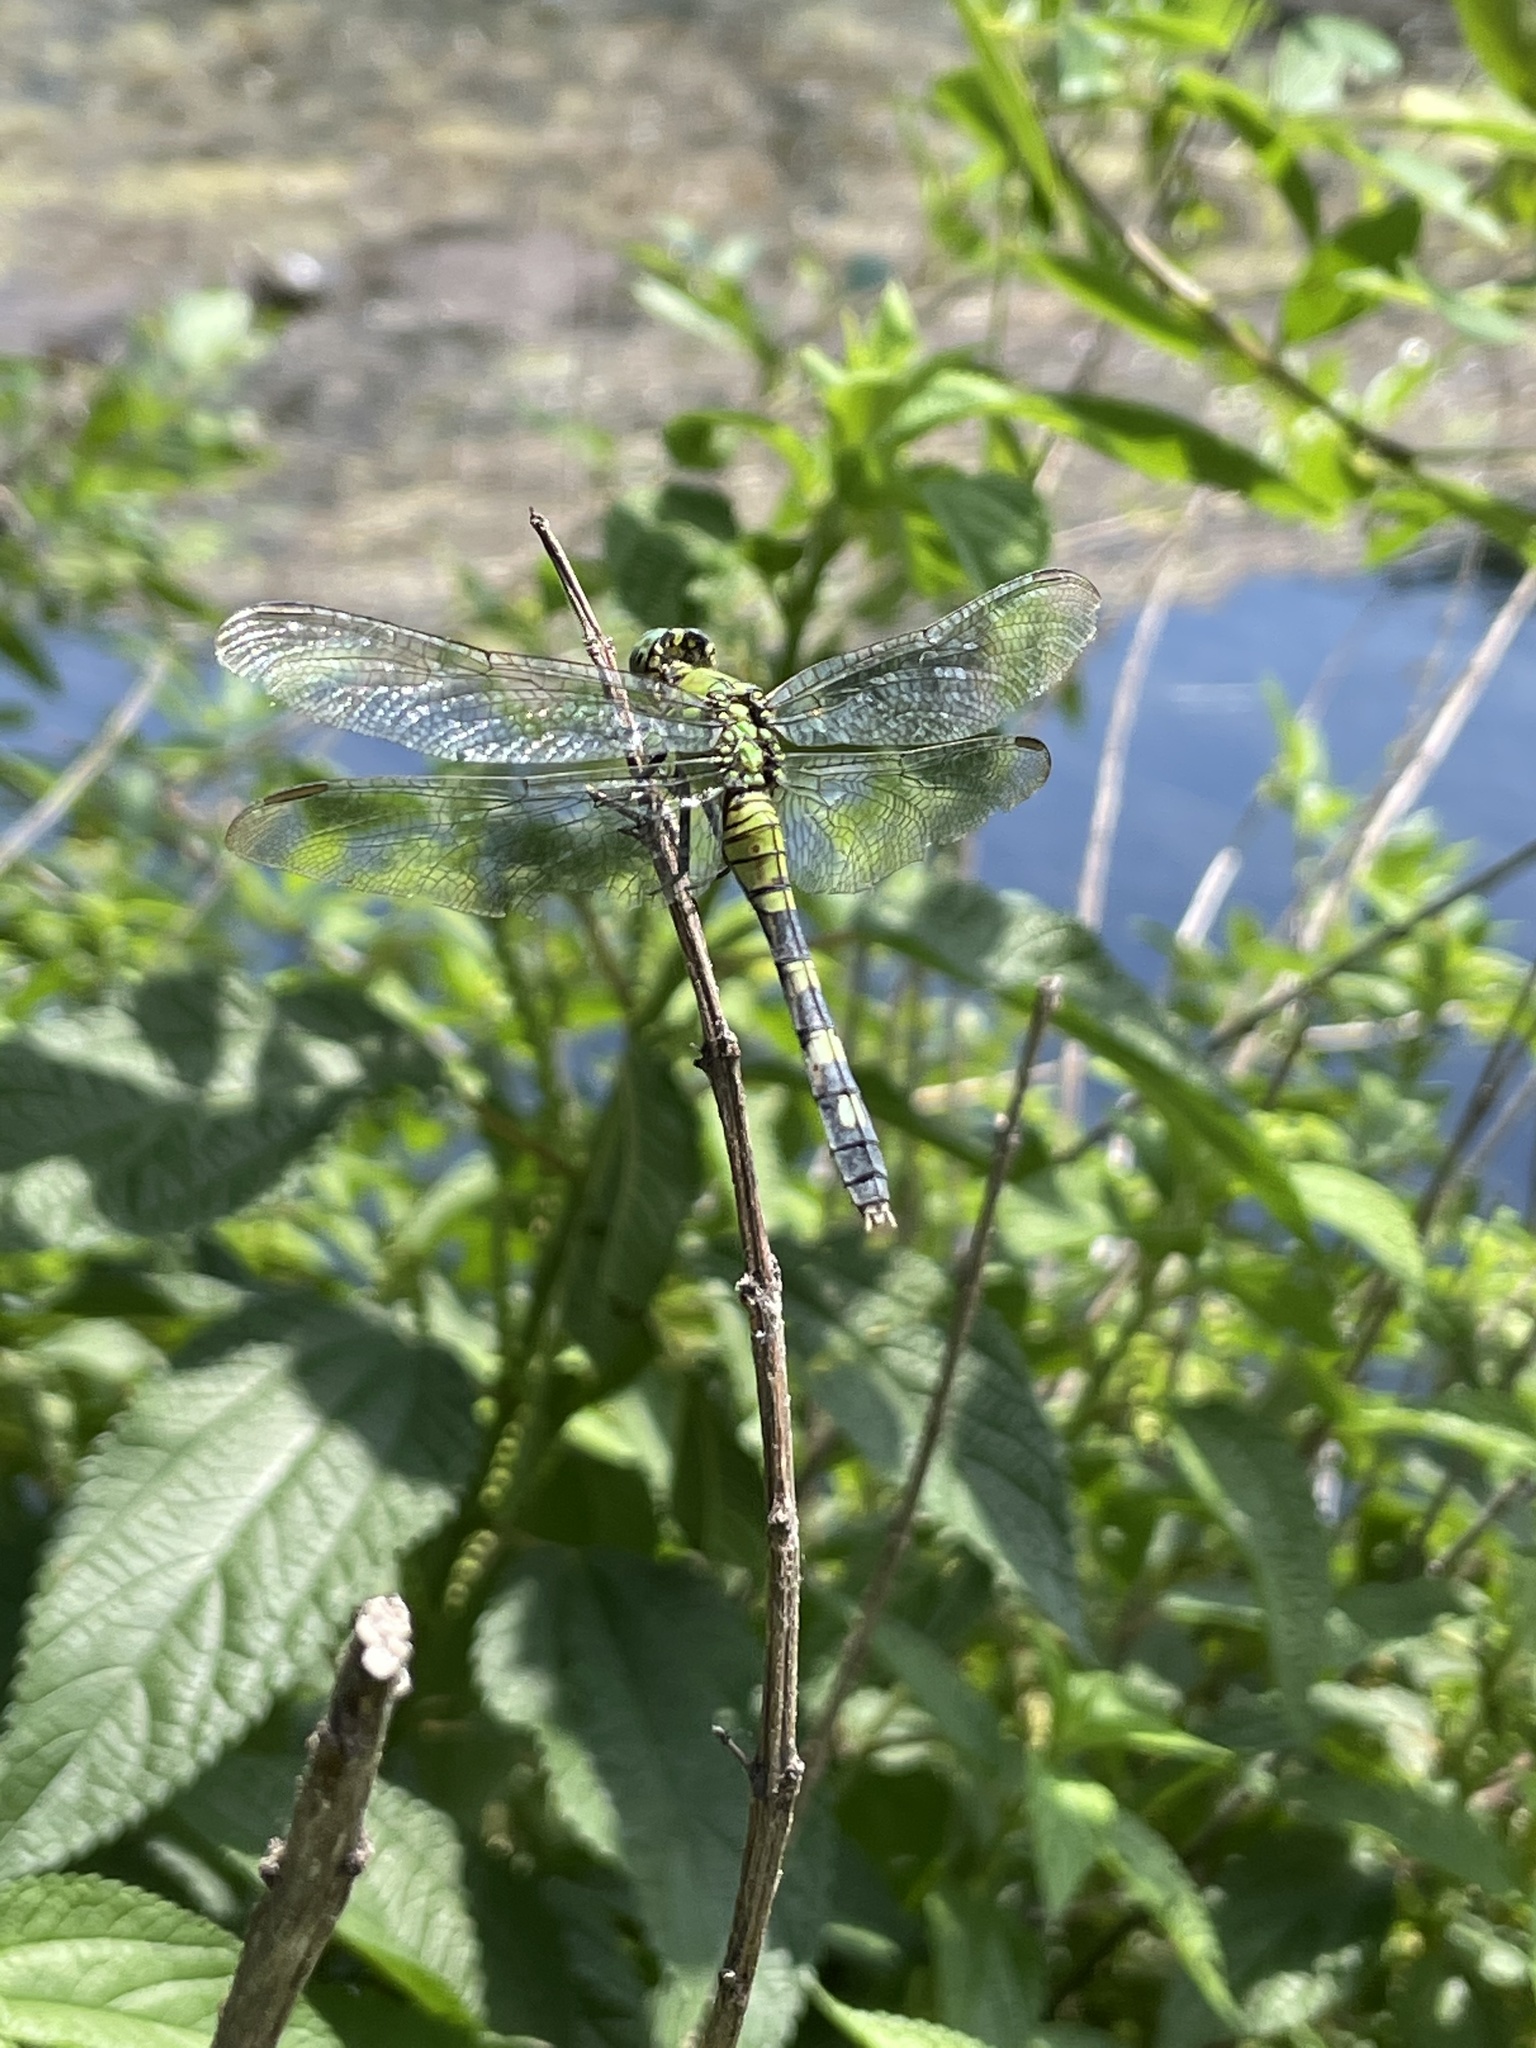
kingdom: Animalia
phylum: Arthropoda
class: Insecta
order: Odonata
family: Libellulidae
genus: Erythemis
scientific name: Erythemis simplicicollis
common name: Eastern pondhawk
